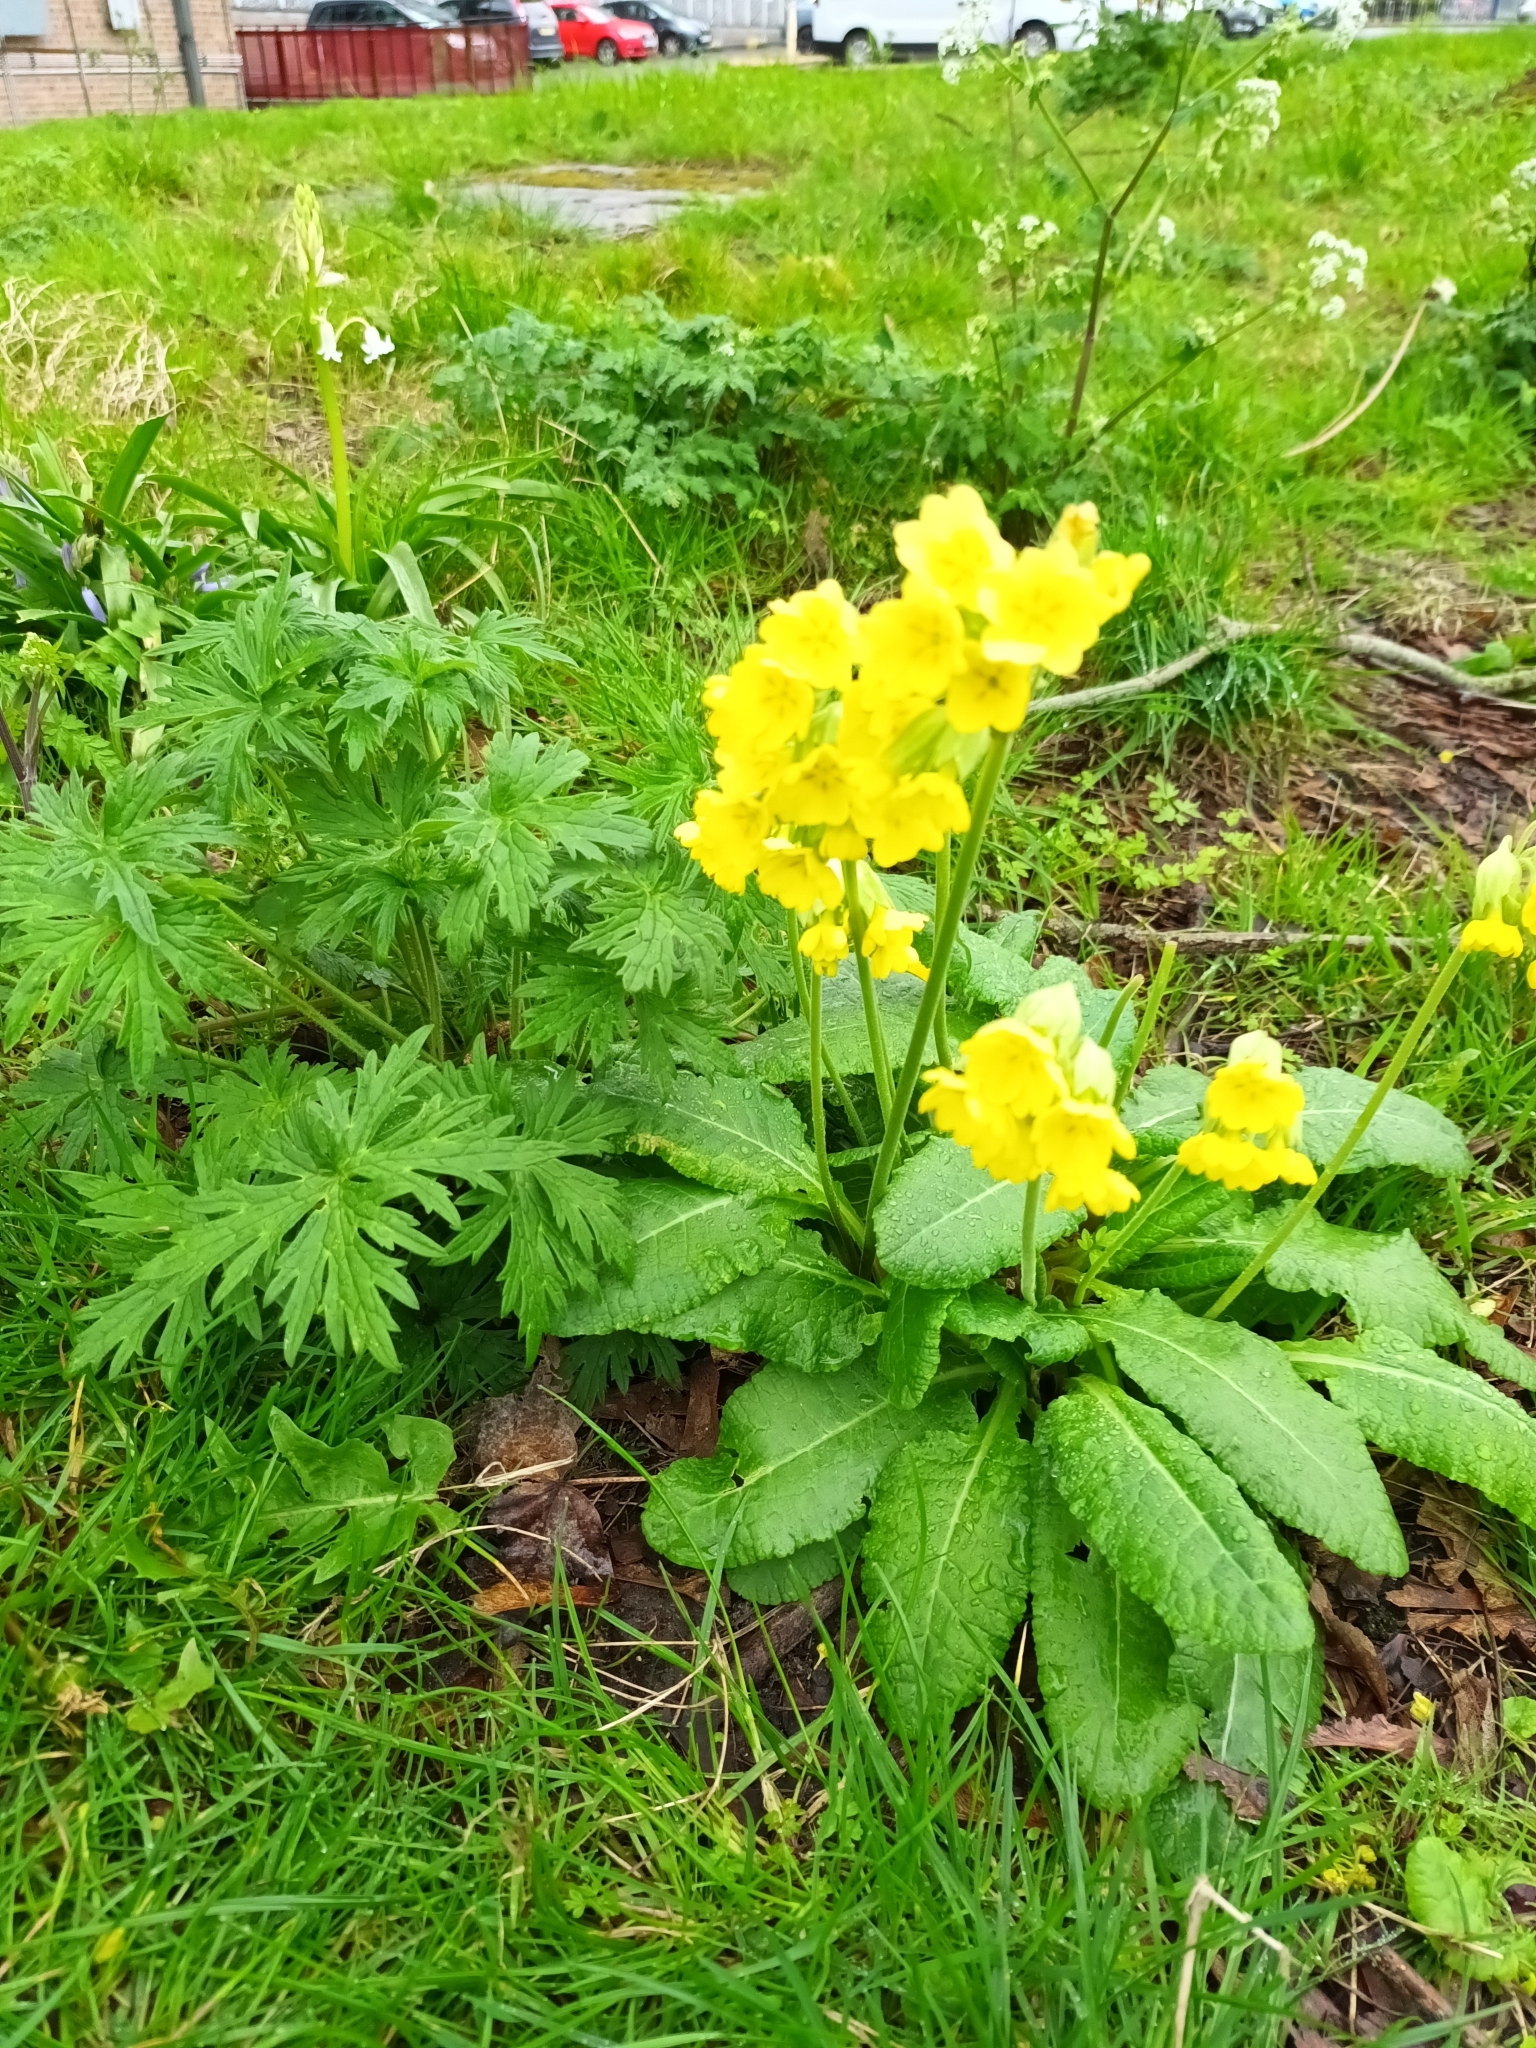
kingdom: Plantae
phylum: Tracheophyta
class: Magnoliopsida
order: Ericales
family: Primulaceae
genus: Primula
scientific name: Primula veris
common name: Cowslip
